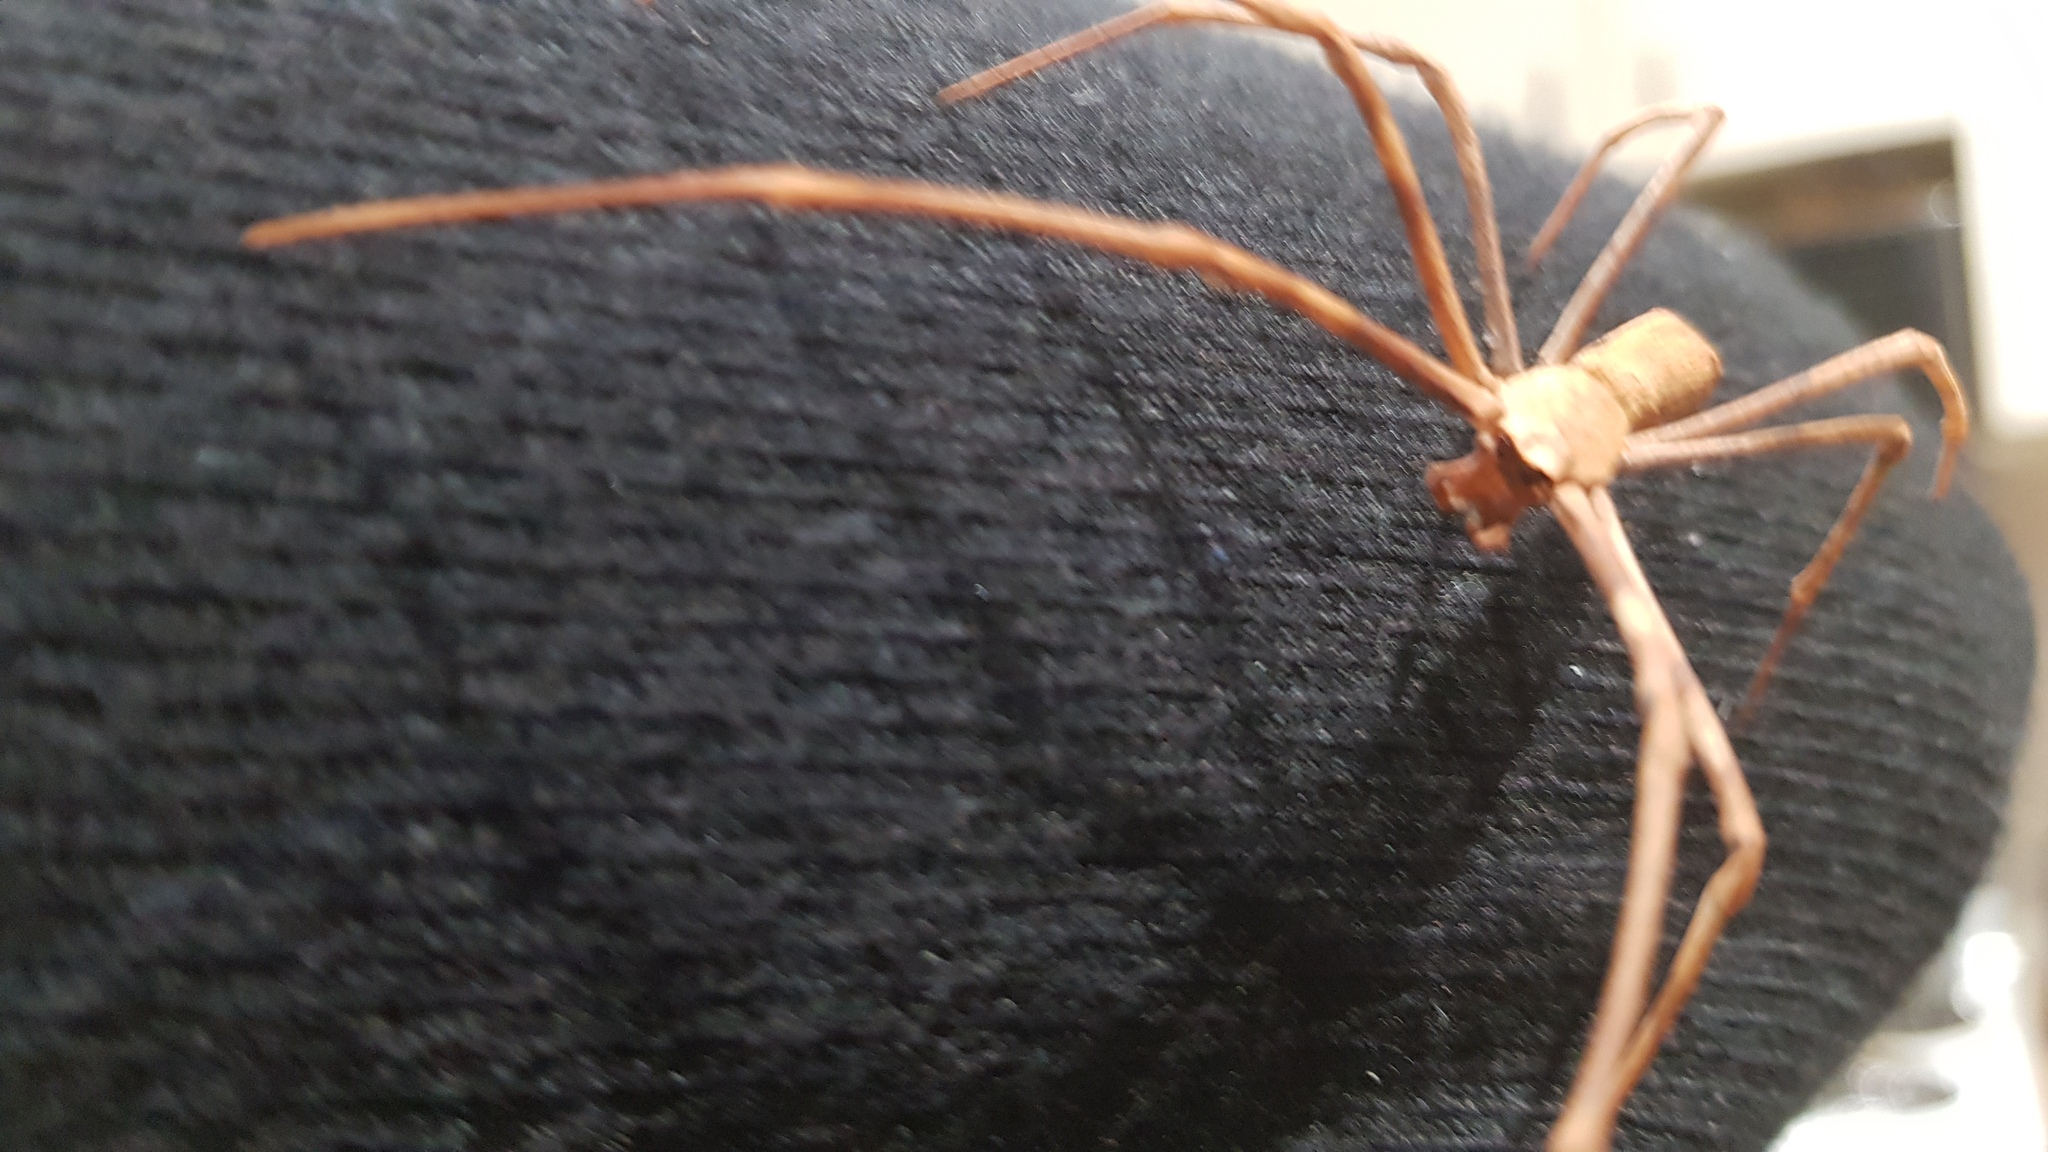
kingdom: Animalia
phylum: Arthropoda
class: Arachnida
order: Araneae
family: Deinopidae
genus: Deinopis
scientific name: Deinopis subrufa
